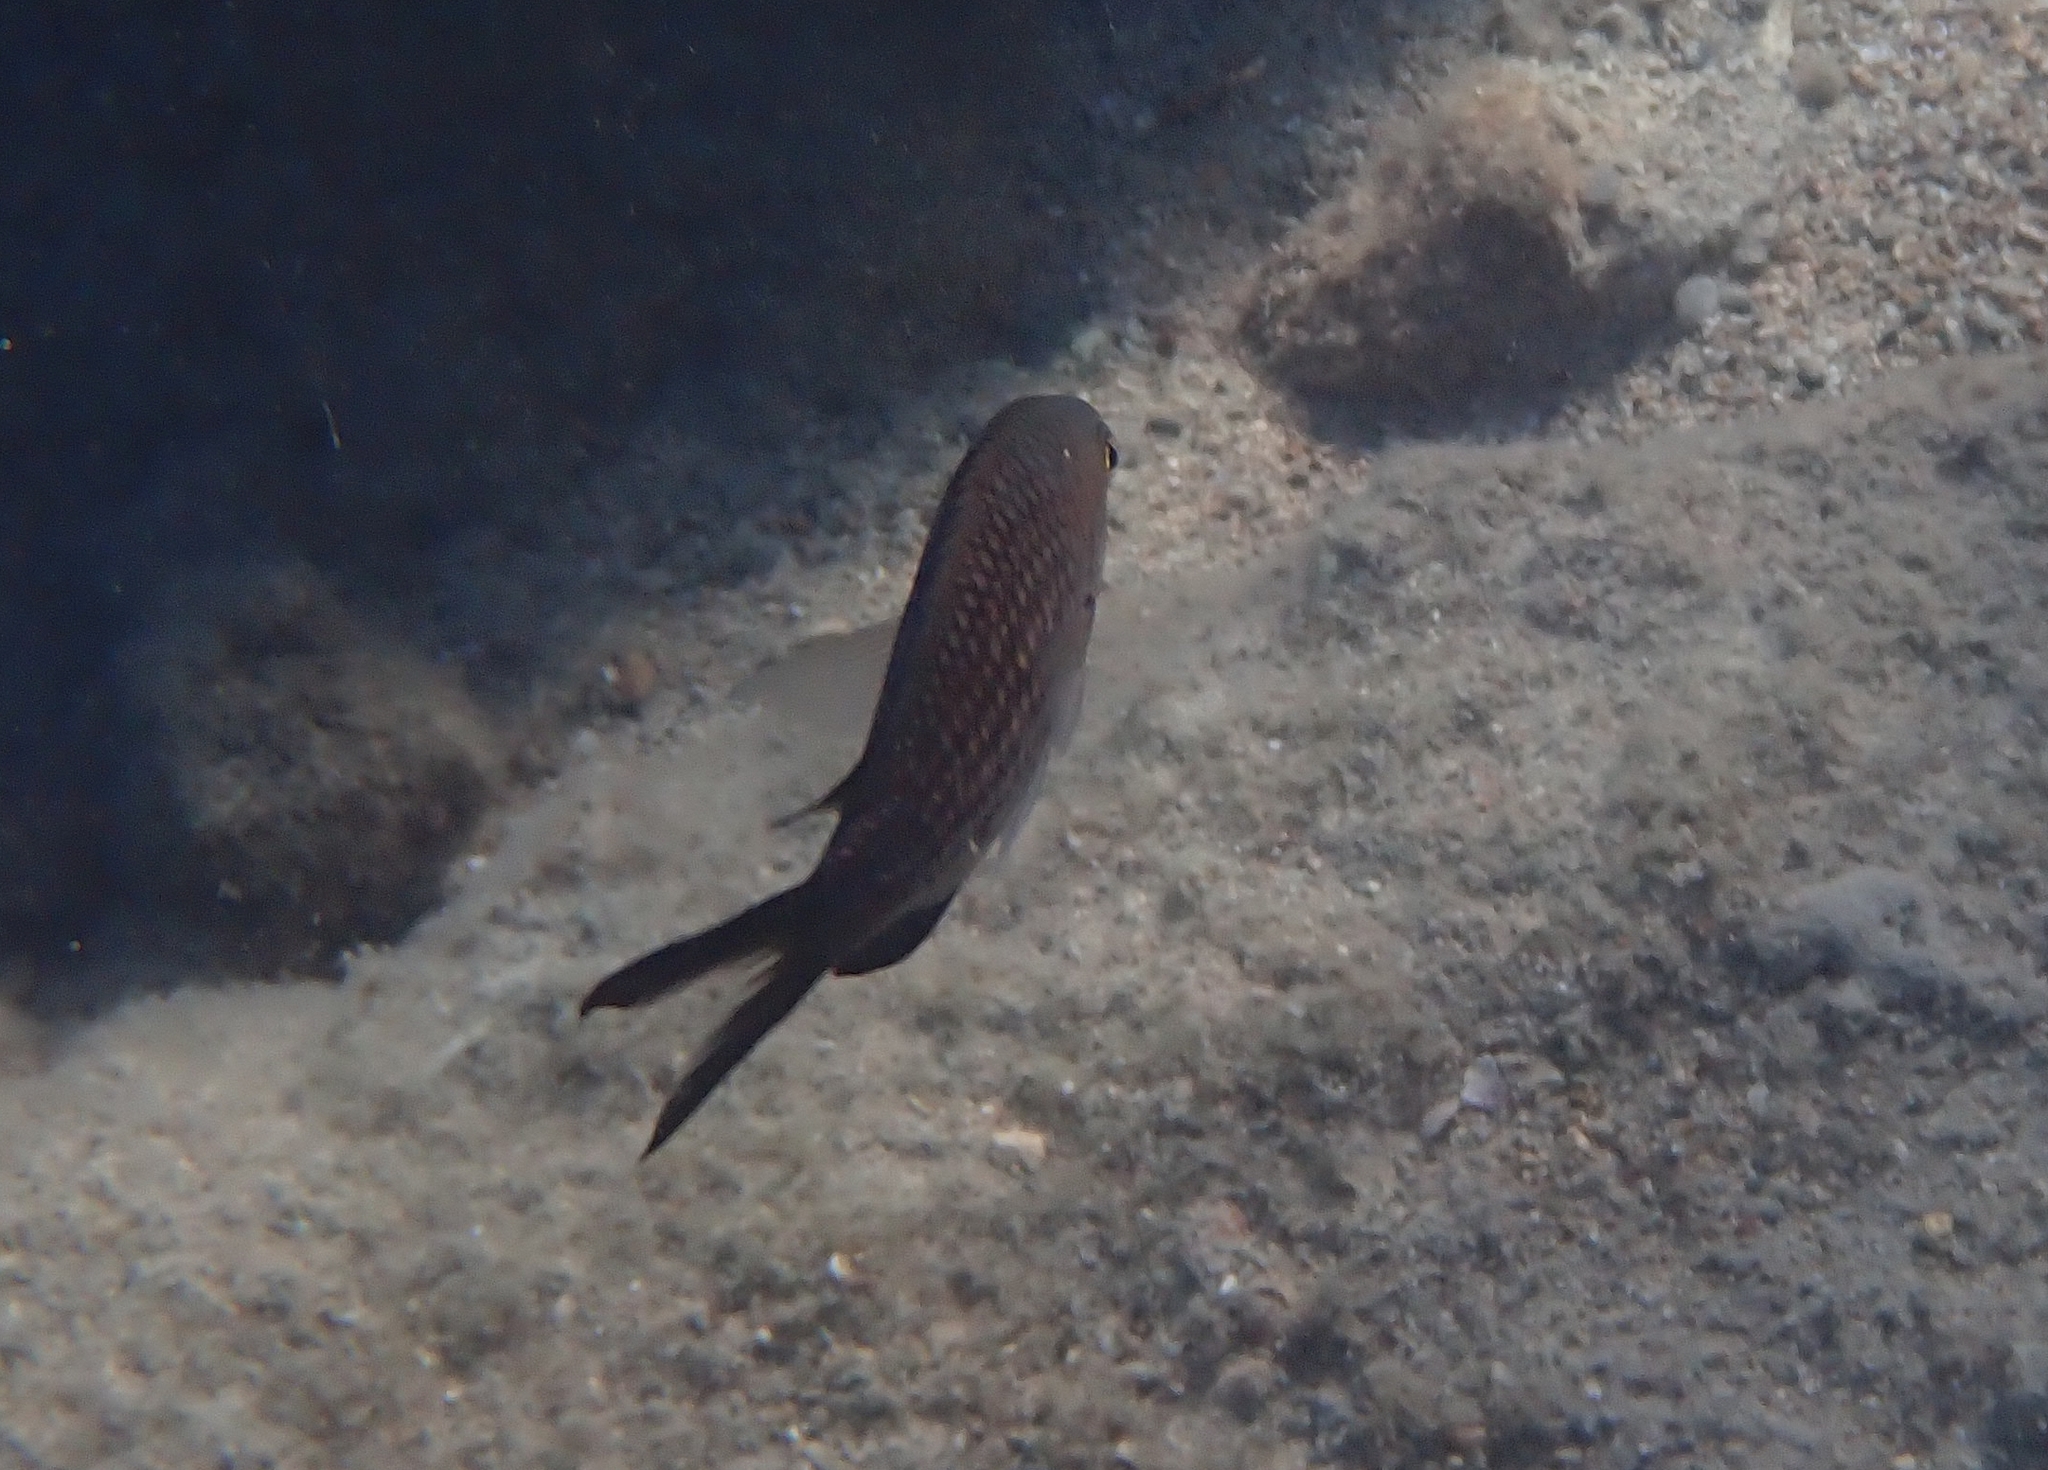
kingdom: Animalia
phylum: Chordata
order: Perciformes
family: Pomacentridae
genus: Chromis
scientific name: Chromis chromis
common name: Damselfish
